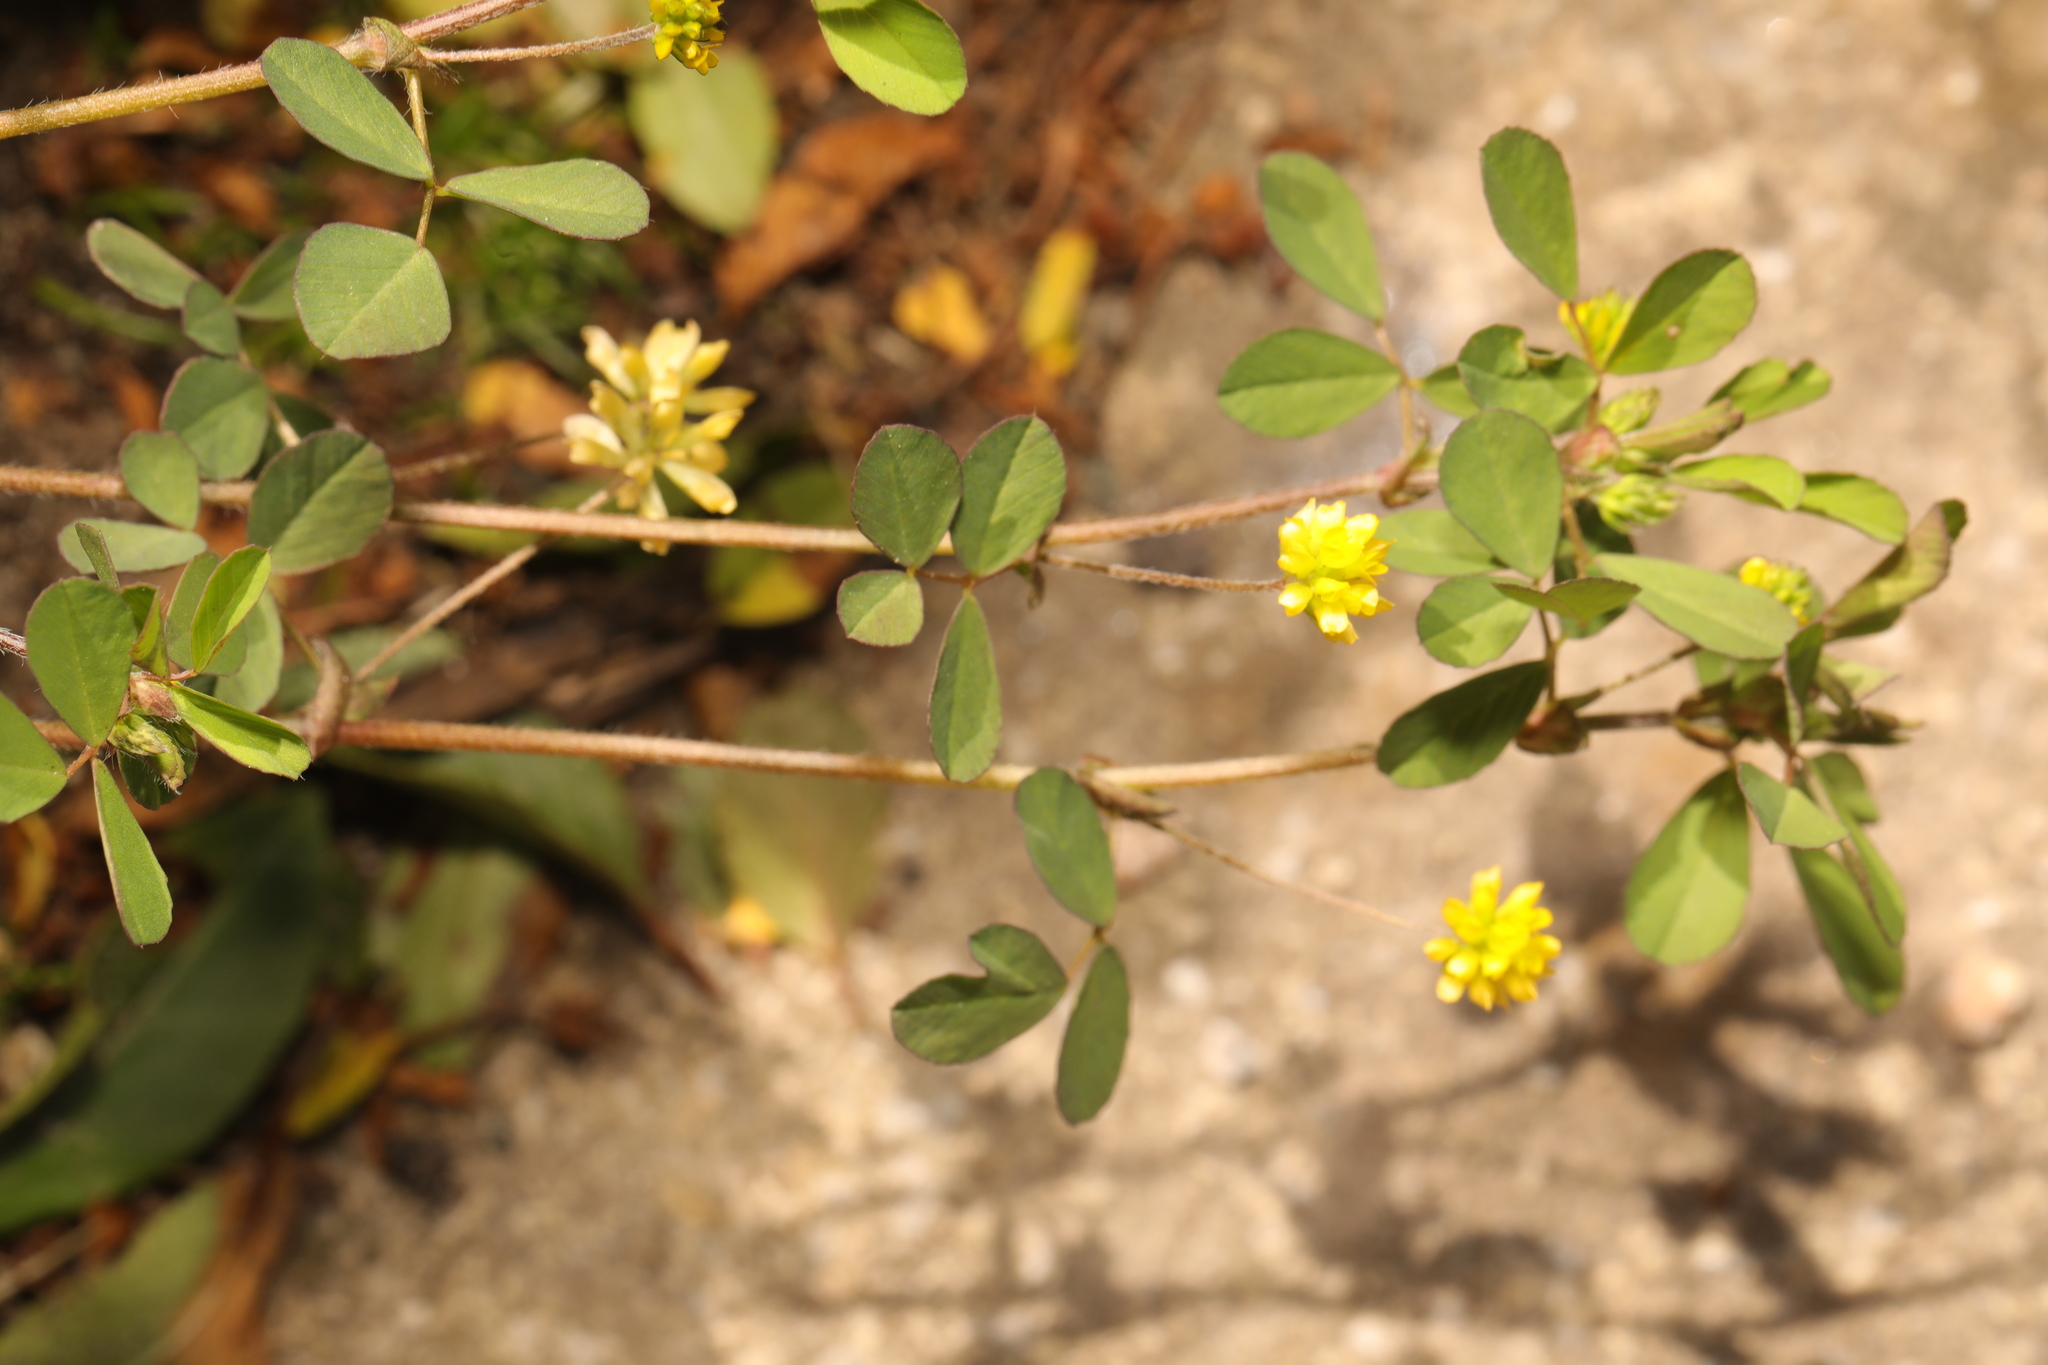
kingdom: Plantae
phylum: Tracheophyta
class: Magnoliopsida
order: Fabales
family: Fabaceae
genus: Trifolium
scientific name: Trifolium dubium
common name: Suckling clover
